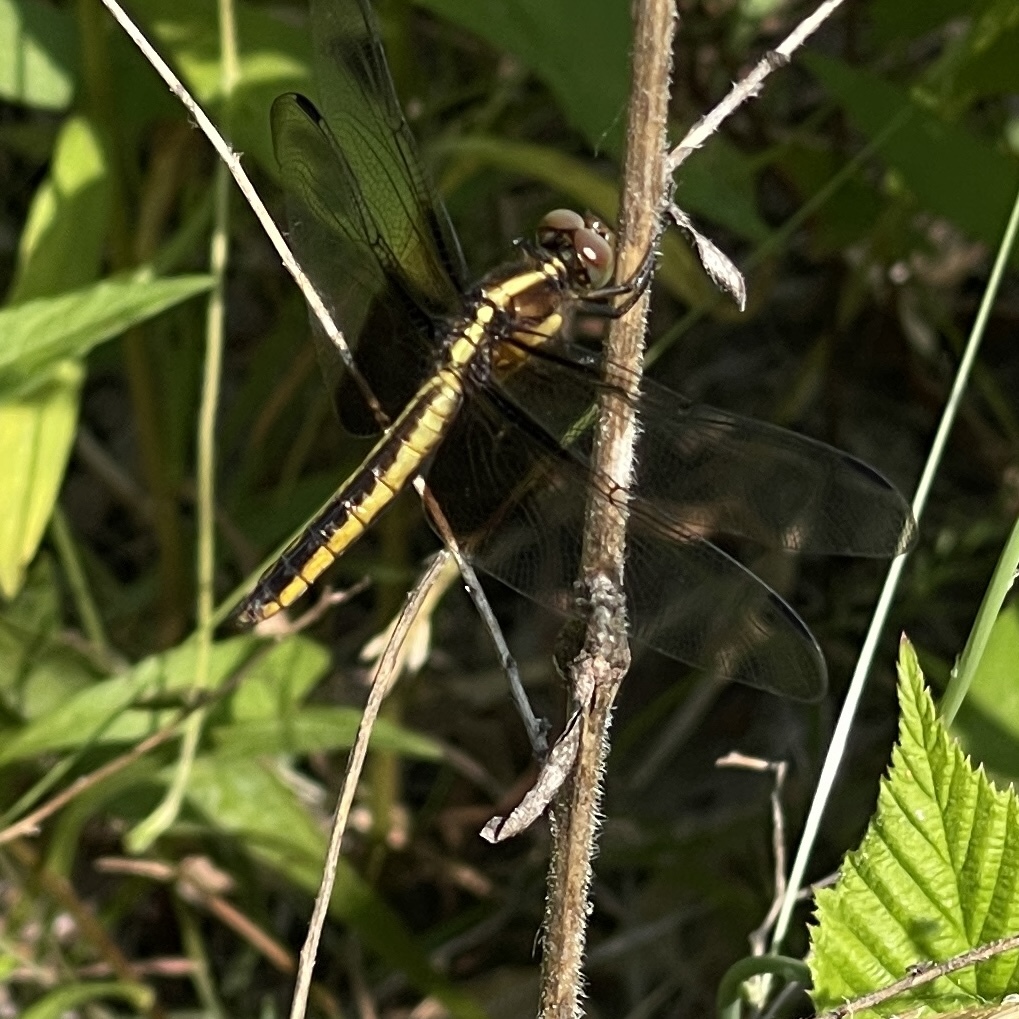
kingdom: Animalia
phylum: Arthropoda
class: Insecta
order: Odonata
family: Libellulidae
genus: Libellula
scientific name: Libellula luctuosa
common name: Widow skimmer
